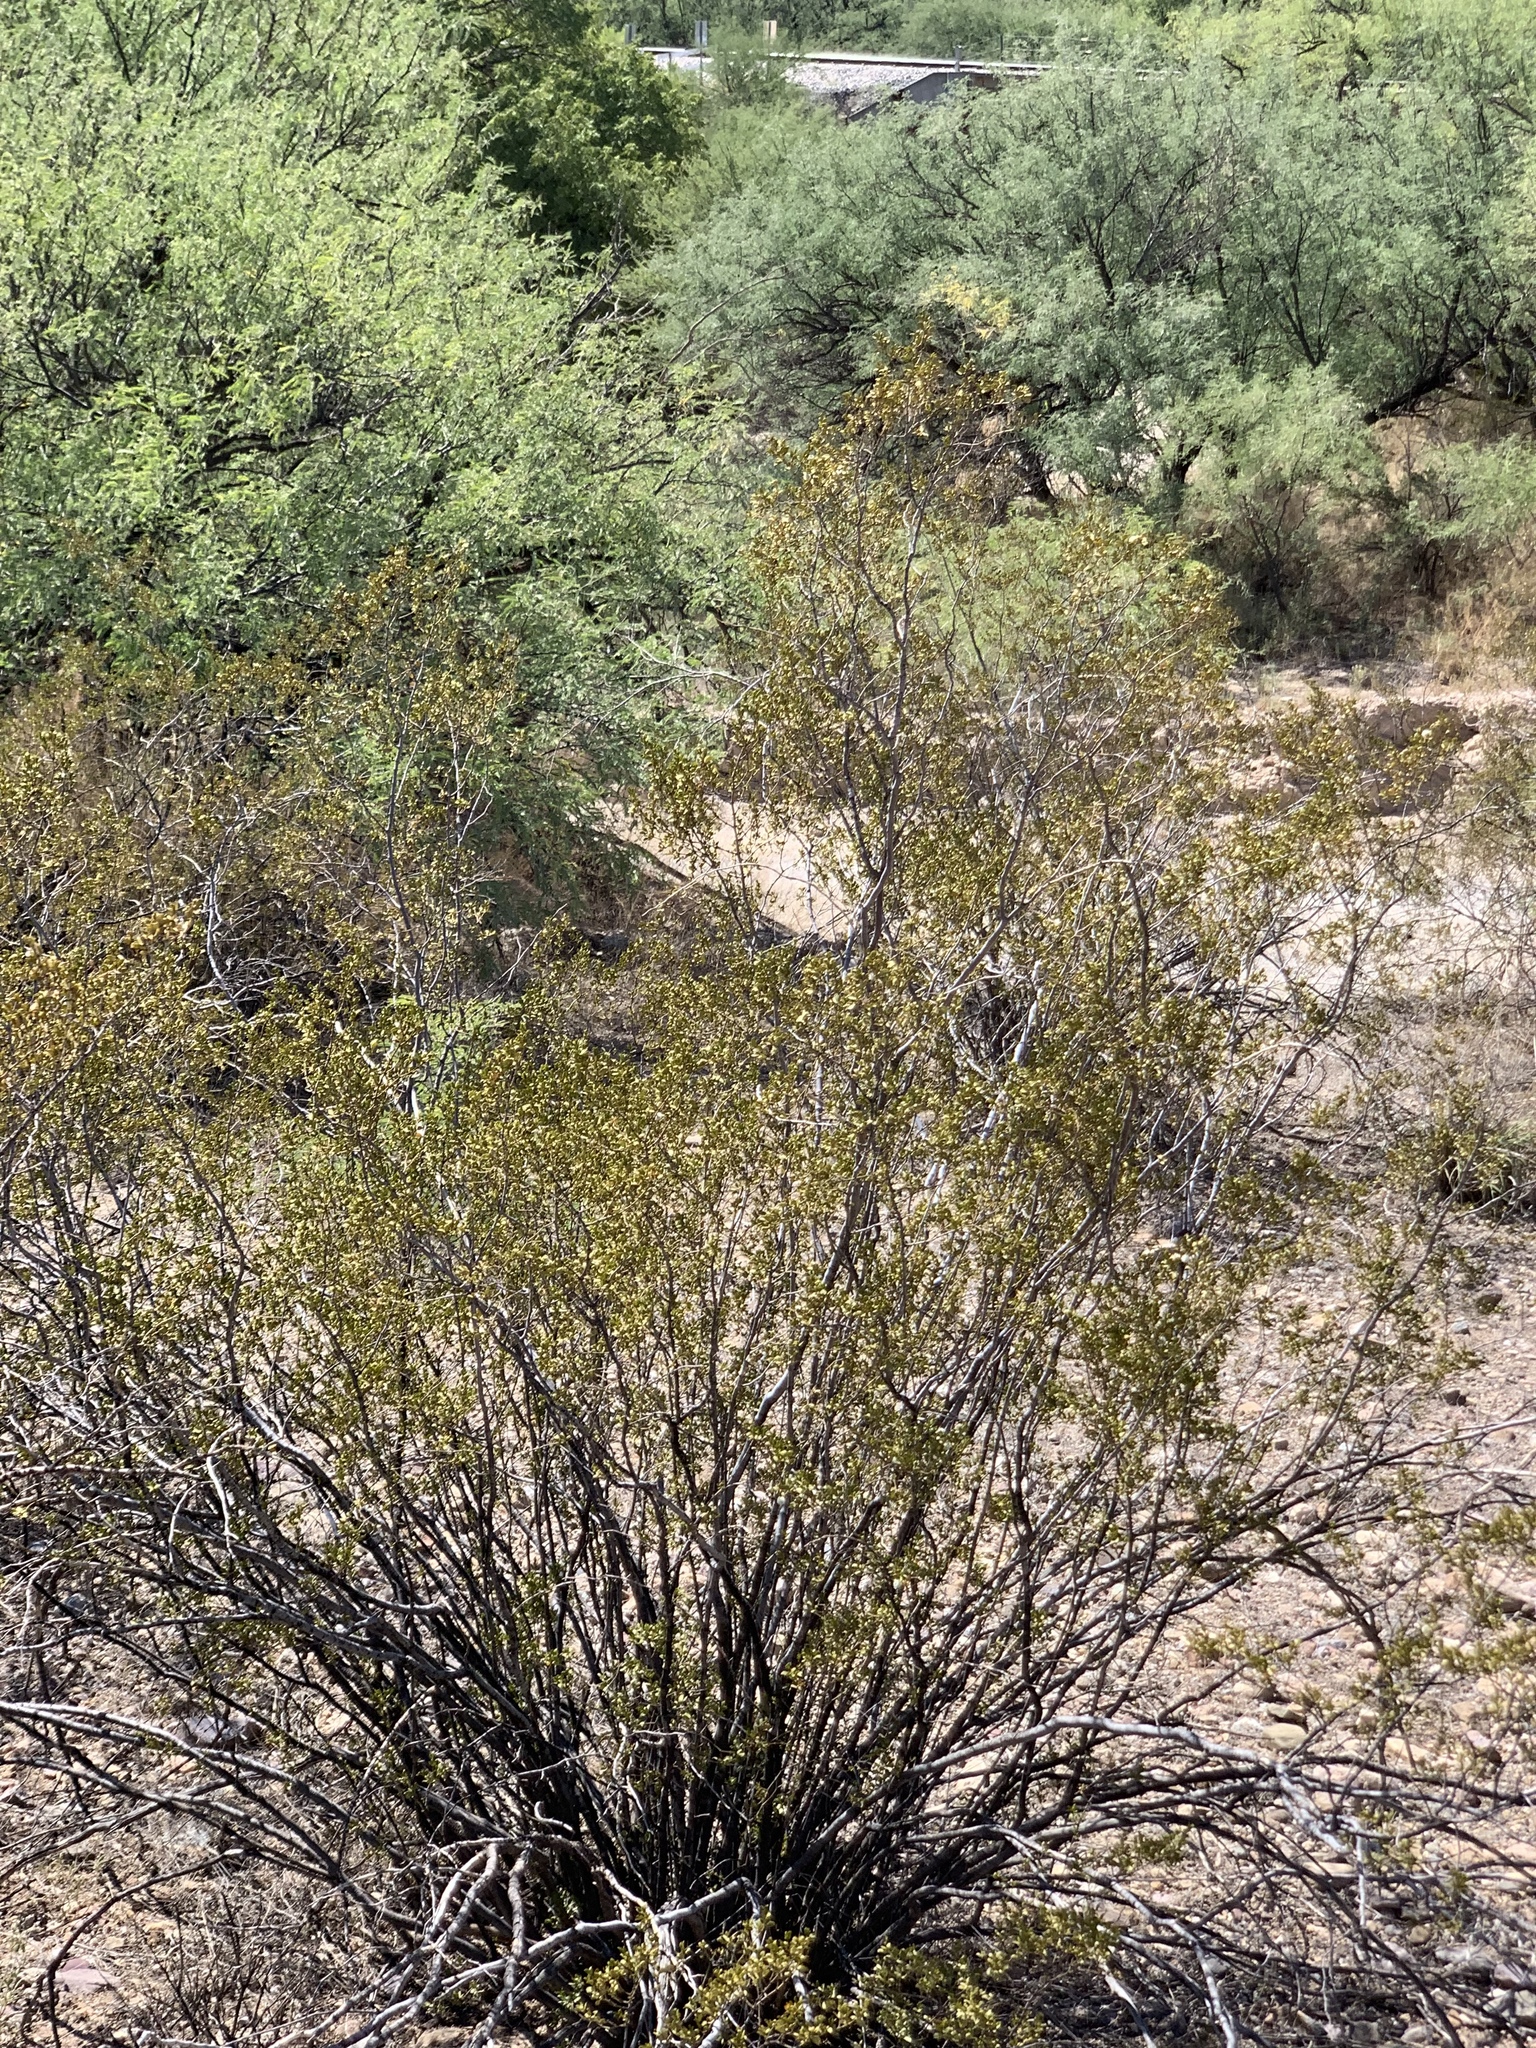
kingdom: Plantae
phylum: Tracheophyta
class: Magnoliopsida
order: Zygophyllales
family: Zygophyllaceae
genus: Larrea
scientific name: Larrea tridentata
